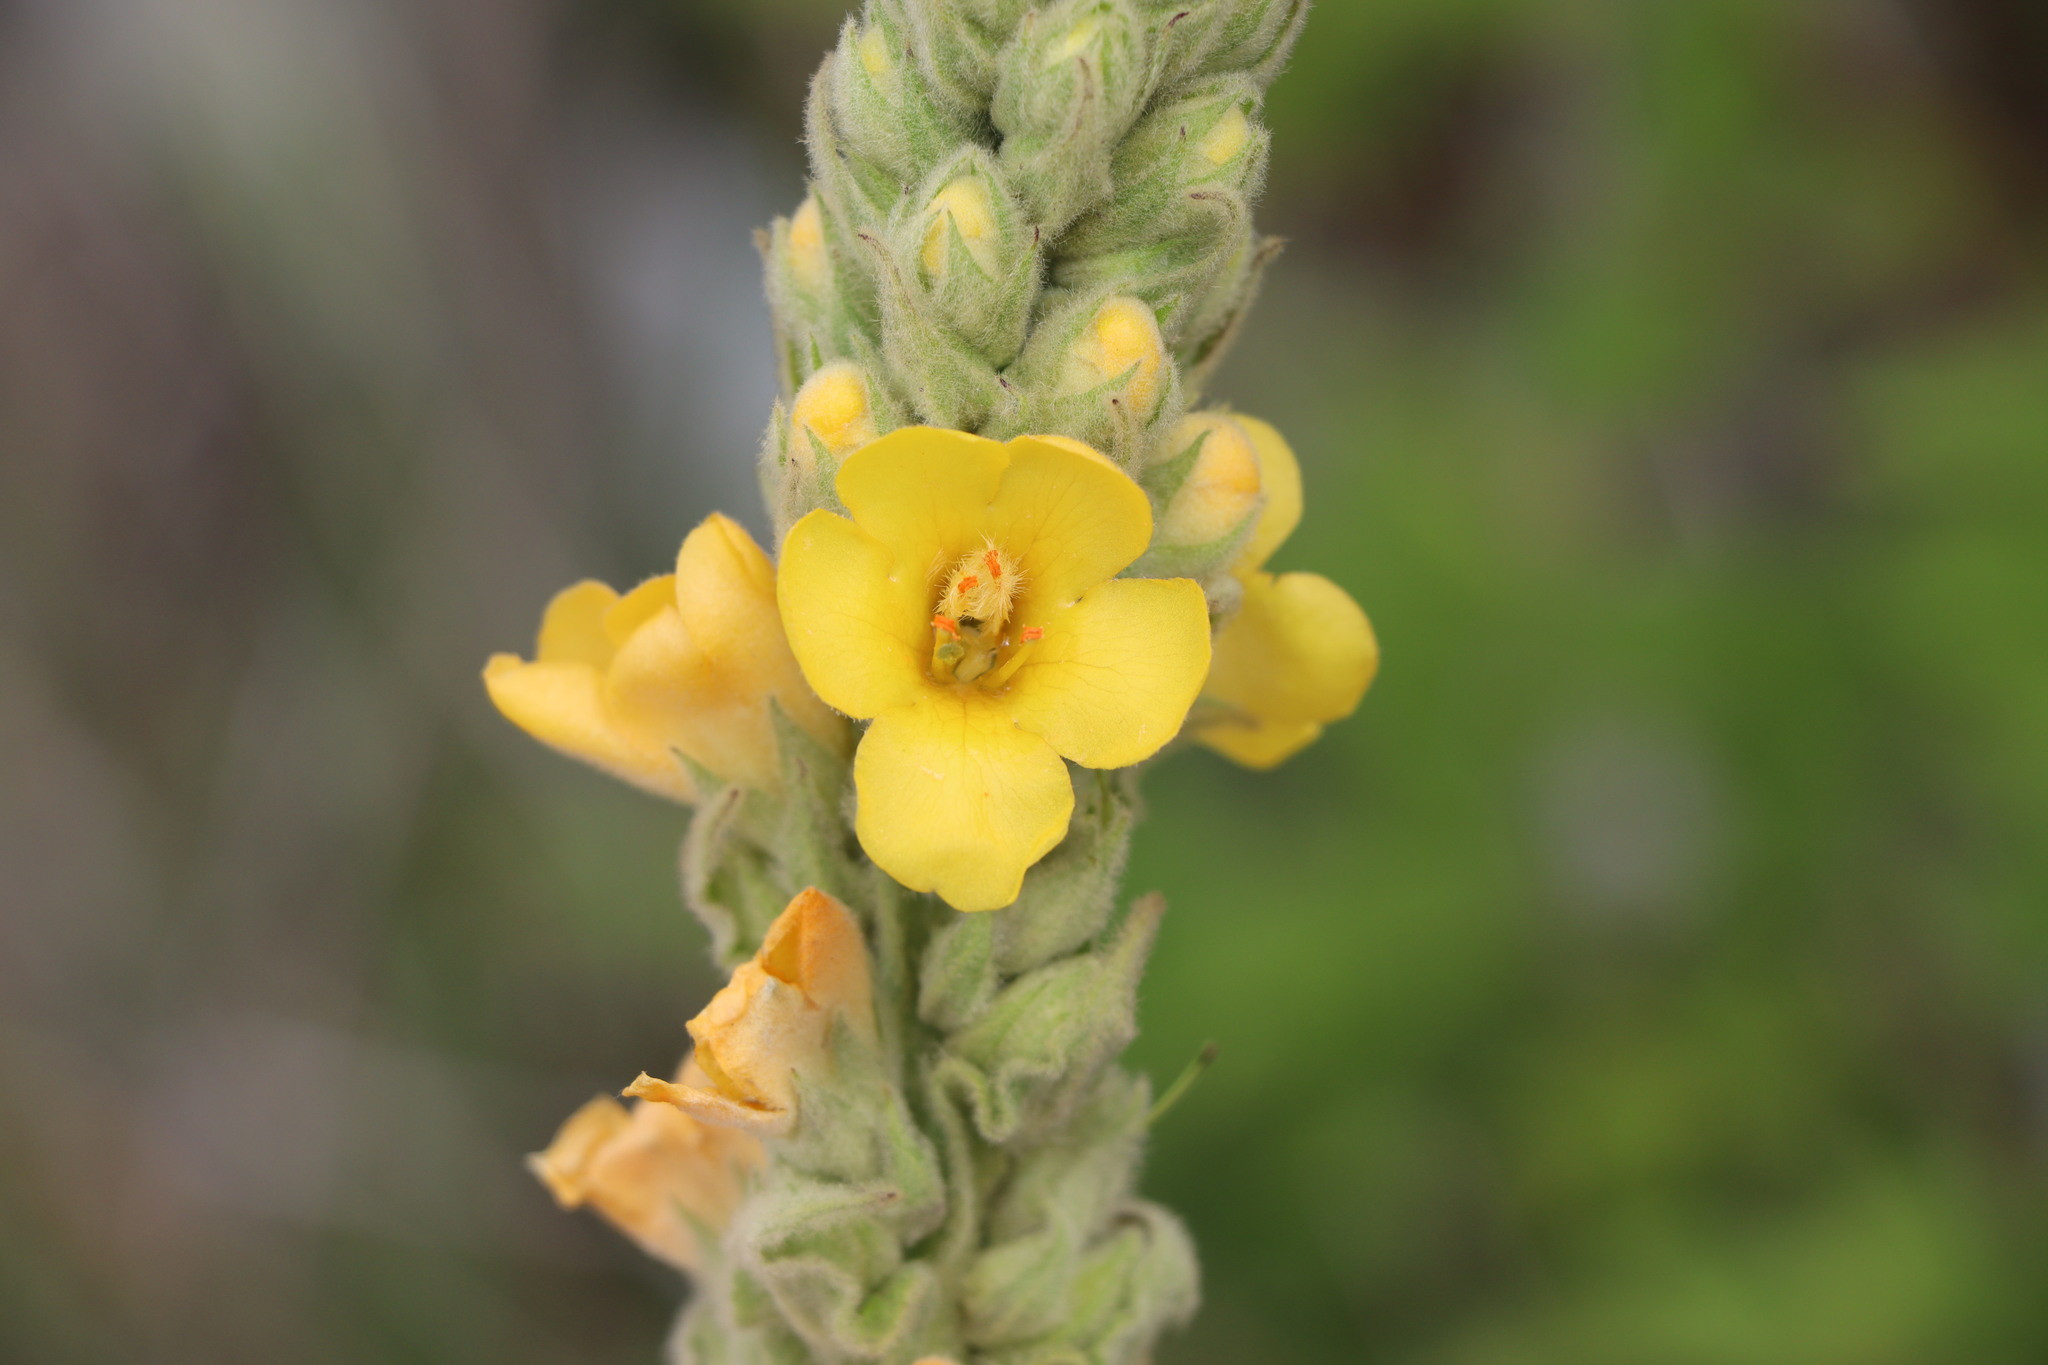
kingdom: Plantae
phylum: Tracheophyta
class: Magnoliopsida
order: Lamiales
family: Scrophulariaceae
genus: Verbascum
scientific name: Verbascum thapsus
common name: Common mullein
